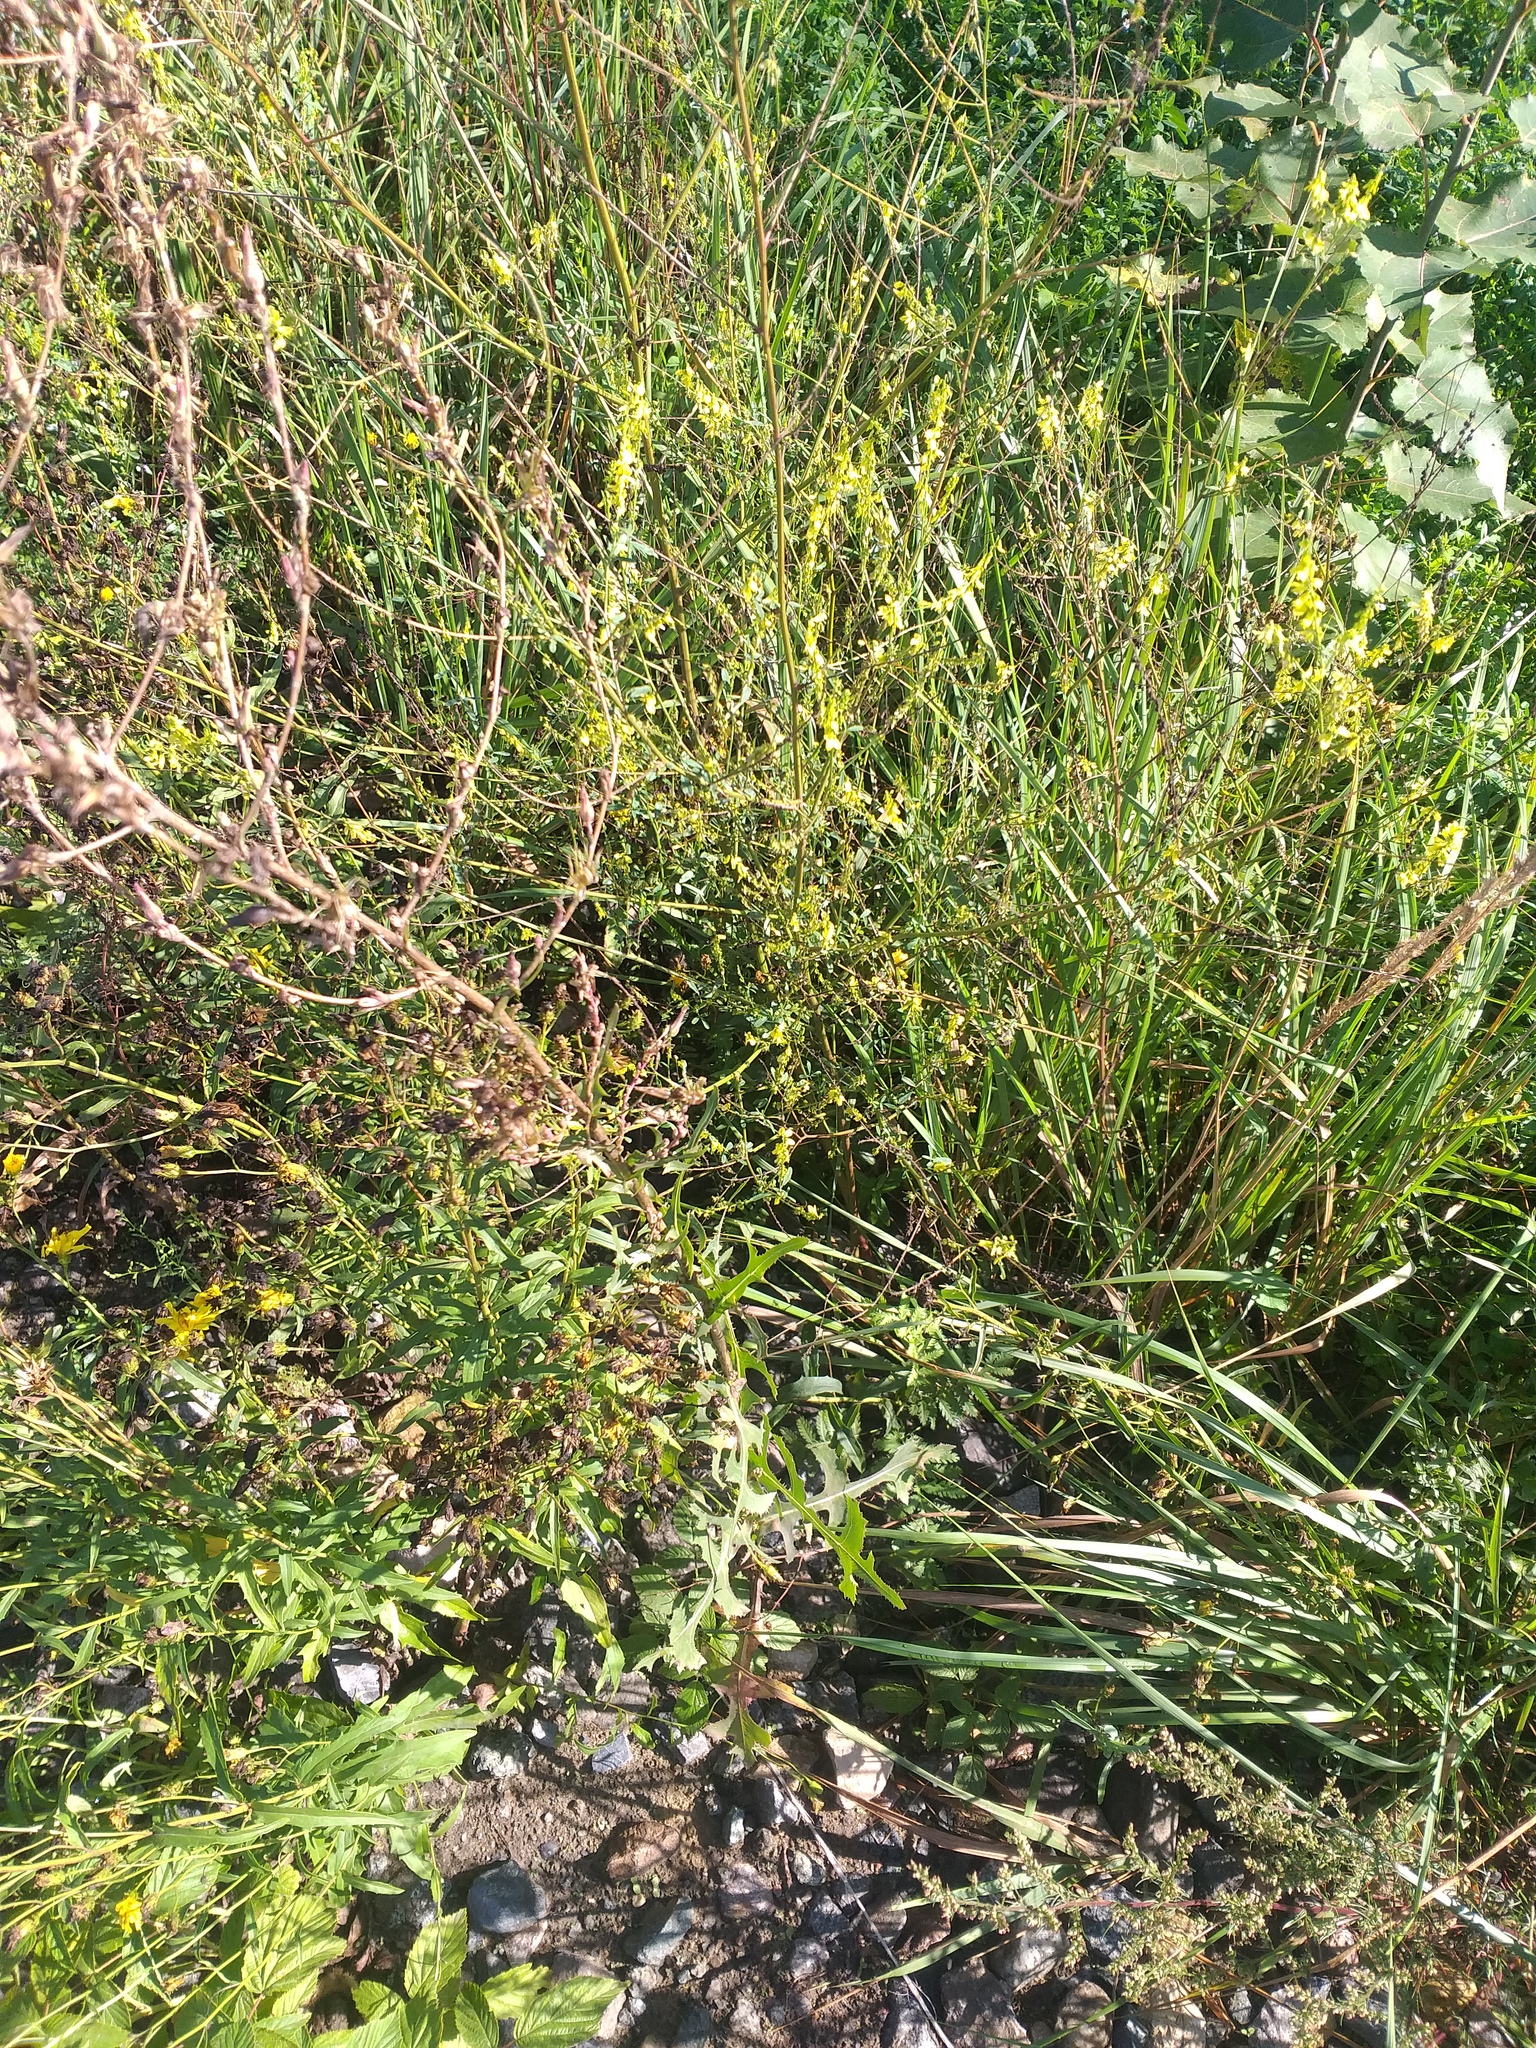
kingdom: Plantae
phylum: Tracheophyta
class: Magnoliopsida
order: Asterales
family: Asteraceae
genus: Lactuca
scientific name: Lactuca serriola
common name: Prickly lettuce
